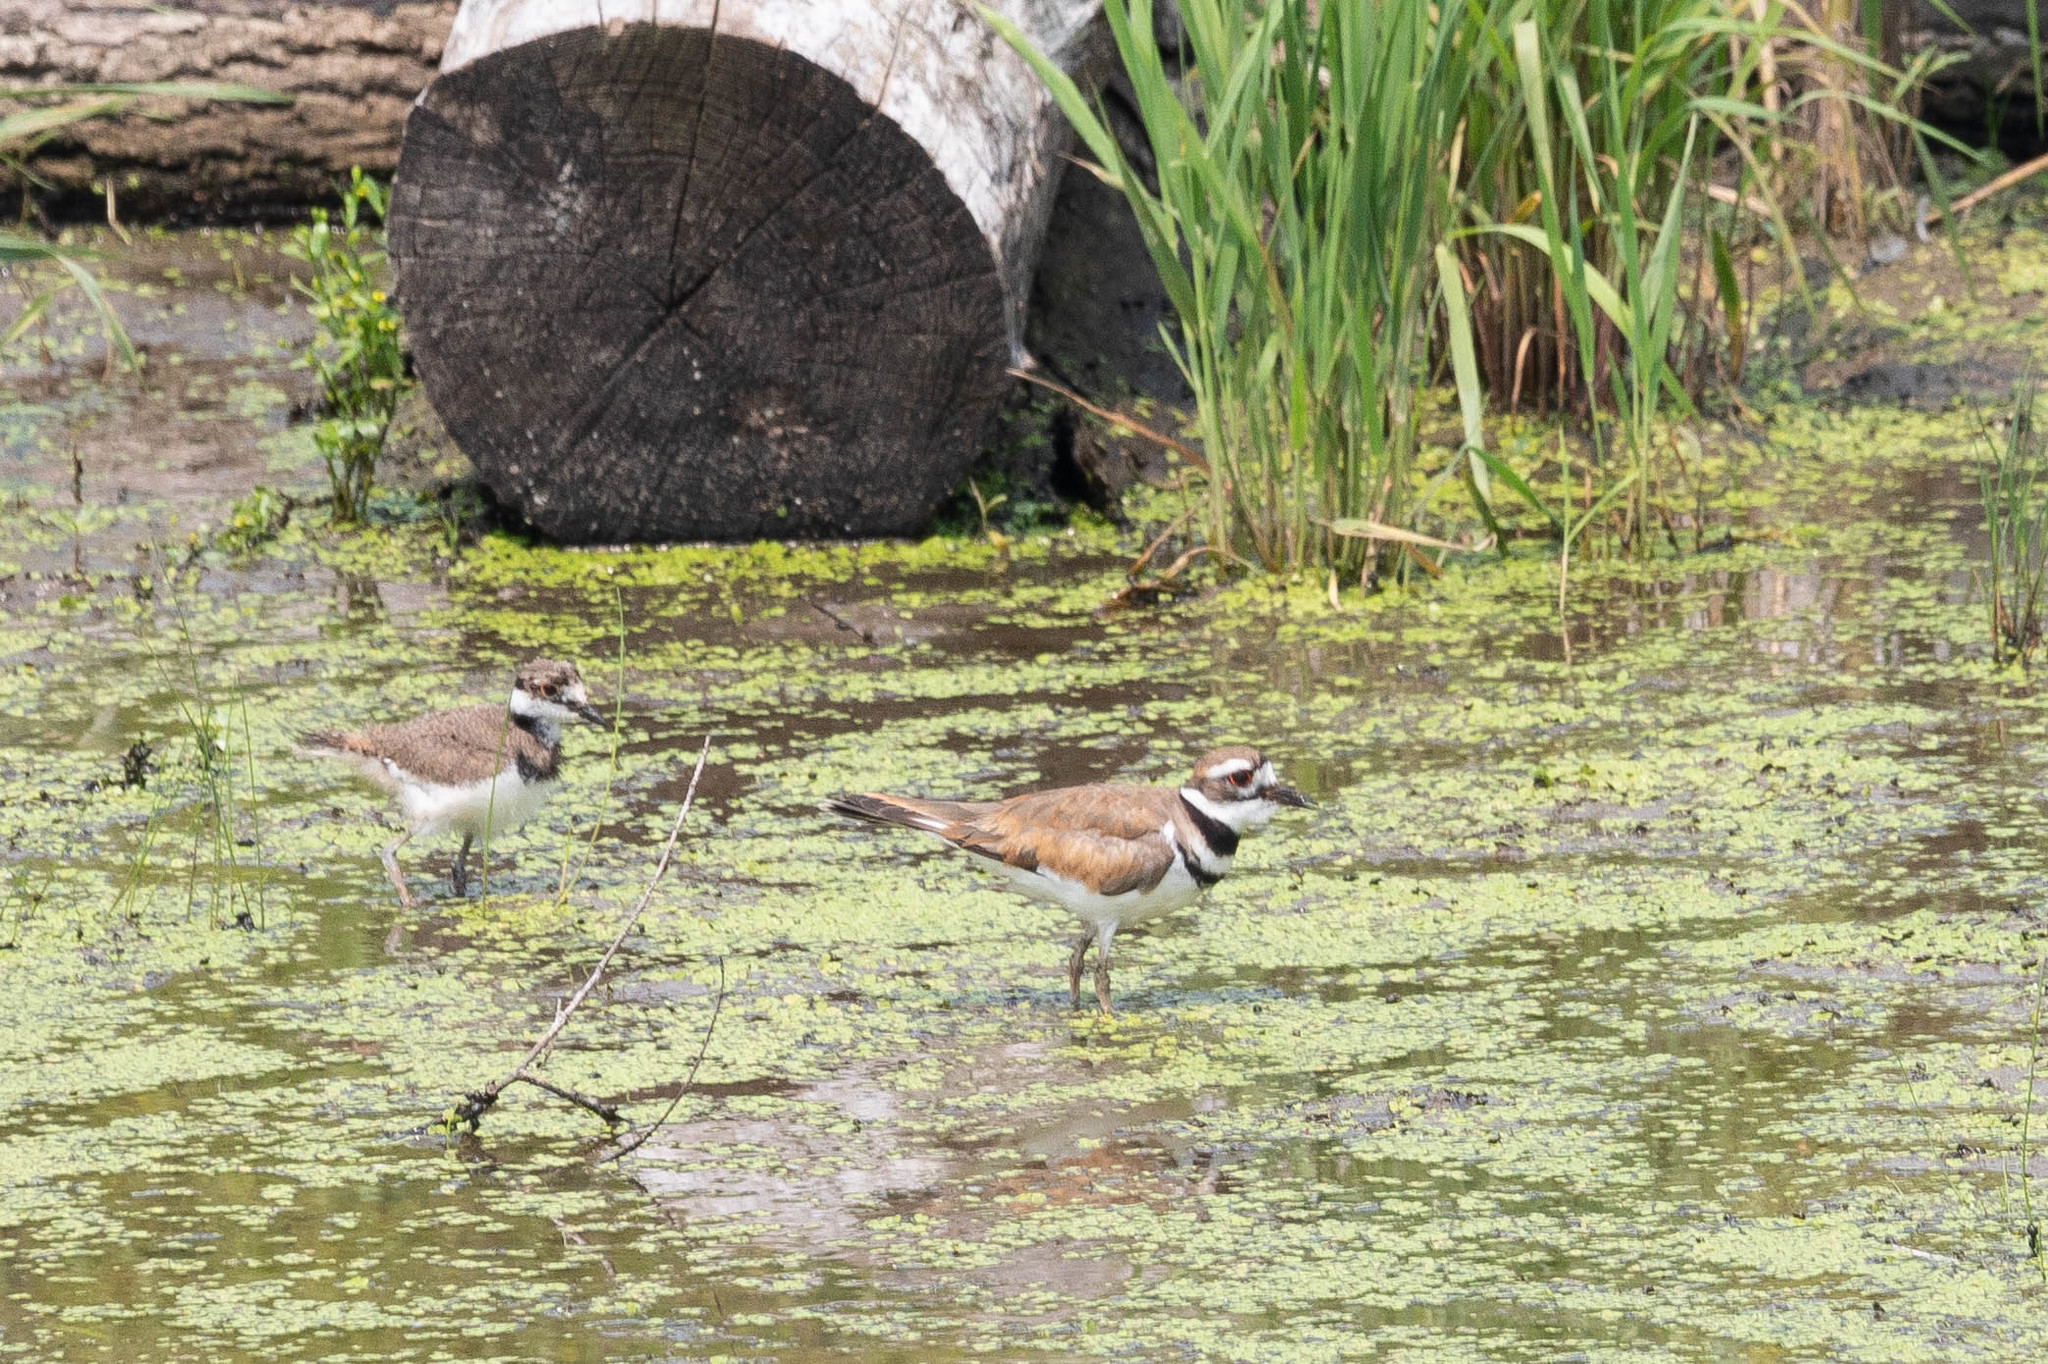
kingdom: Animalia
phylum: Chordata
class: Aves
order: Charadriiformes
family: Charadriidae
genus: Charadrius
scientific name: Charadrius vociferus
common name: Killdeer
